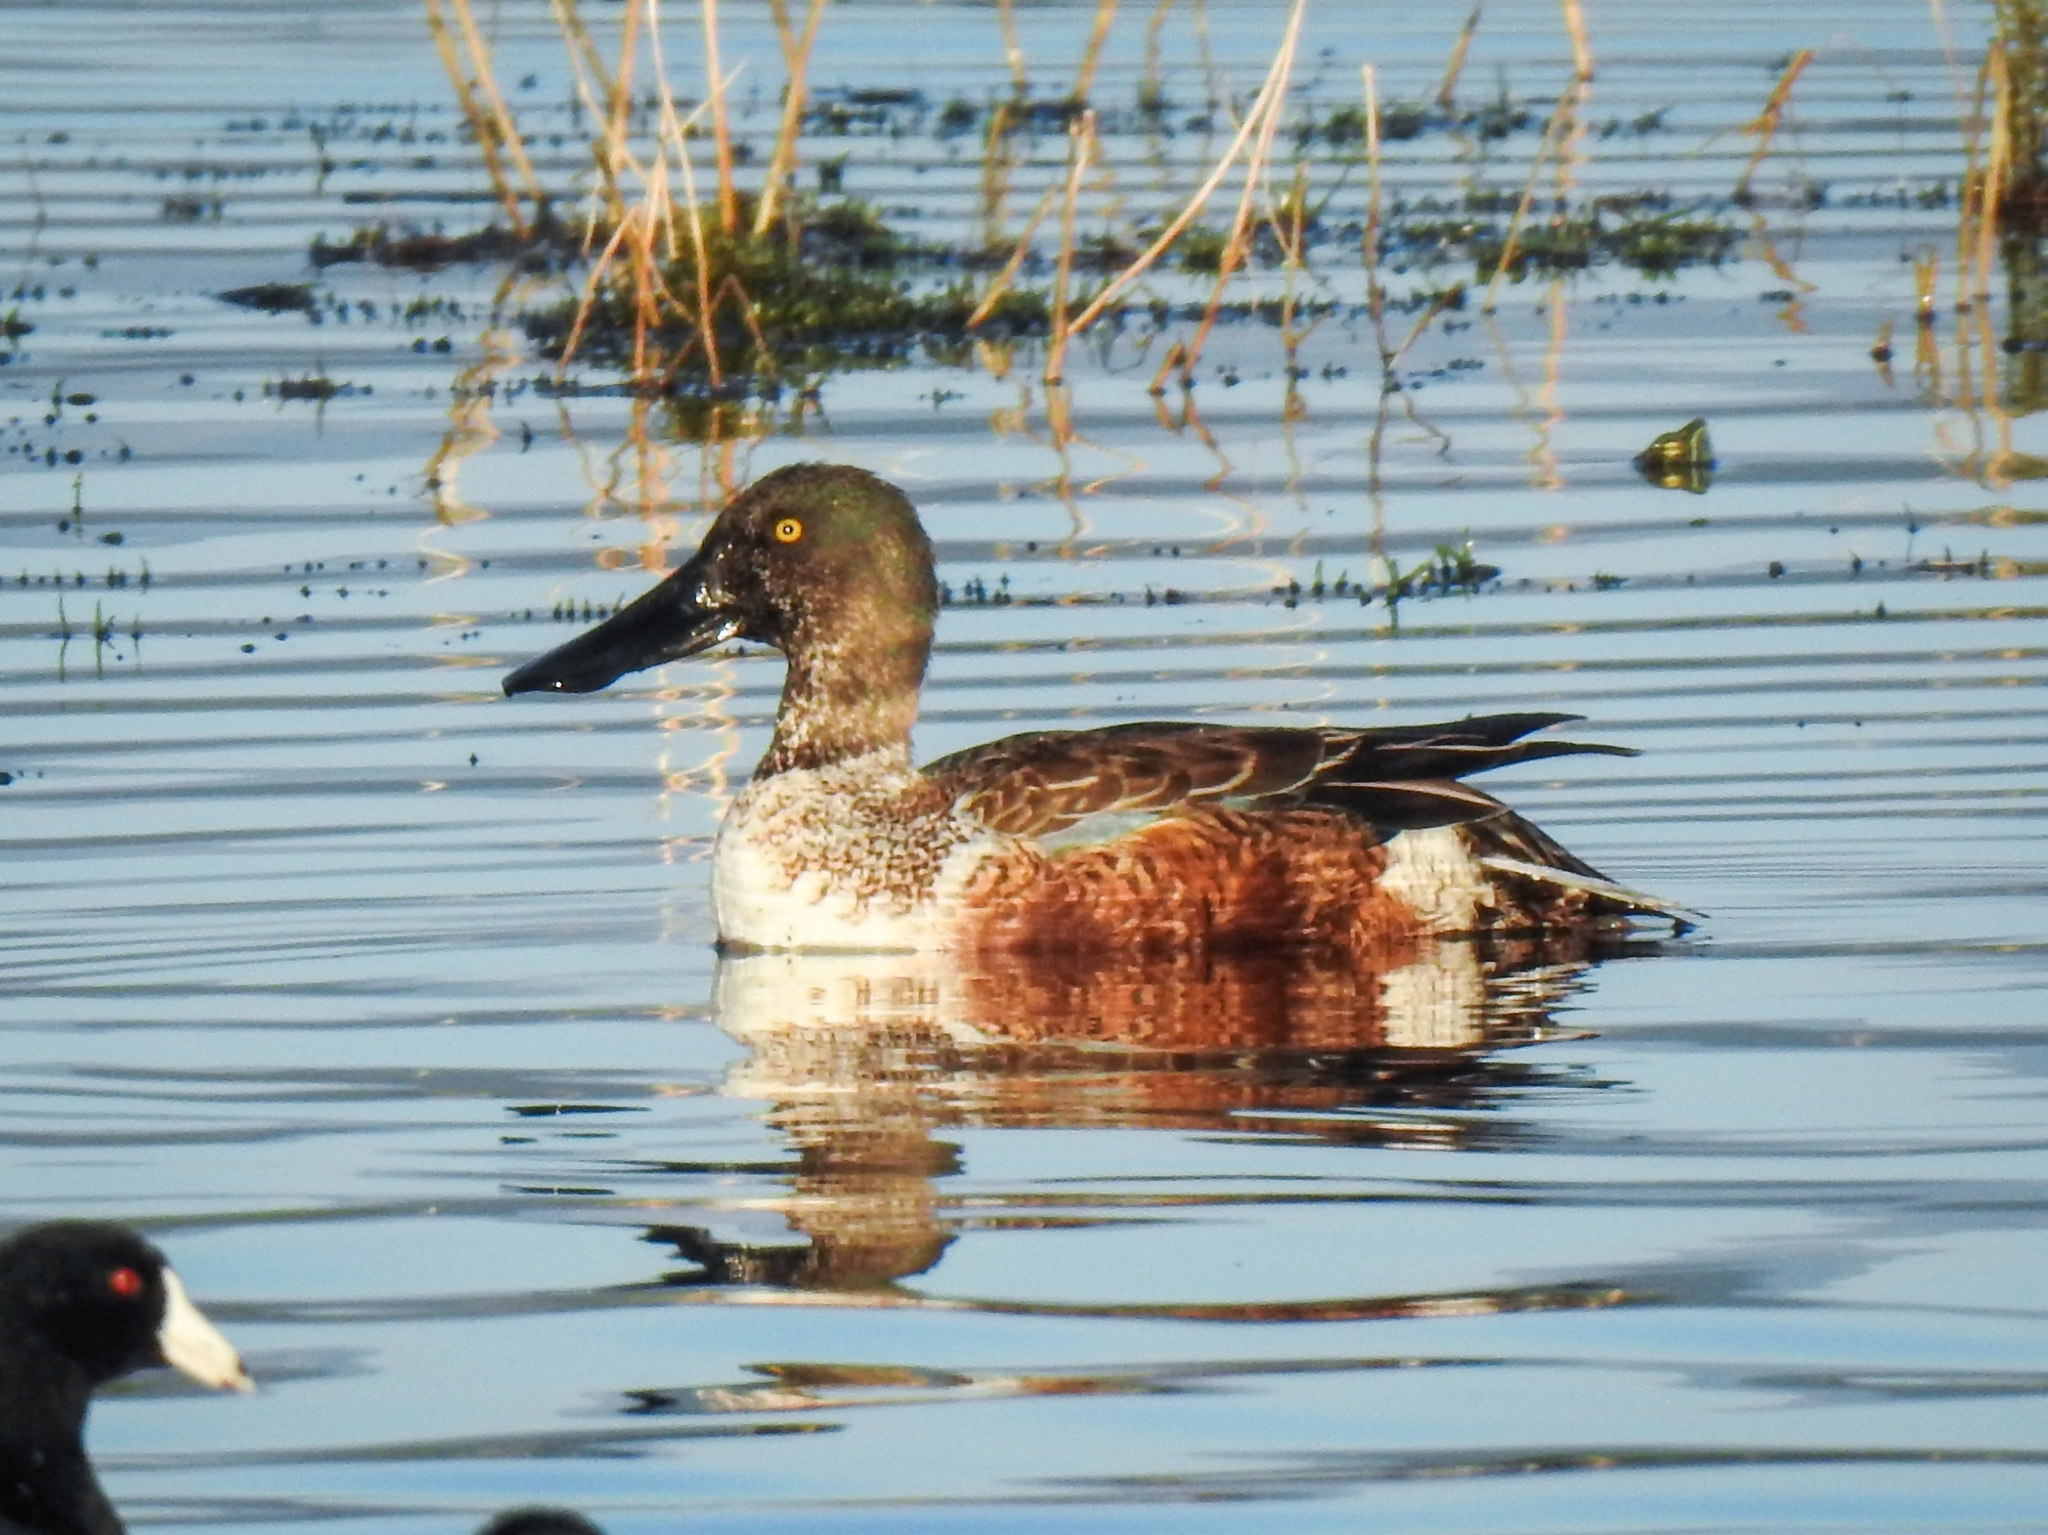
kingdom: Animalia
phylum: Chordata
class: Aves
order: Anseriformes
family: Anatidae
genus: Spatula
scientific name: Spatula clypeata
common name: Northern shoveler
